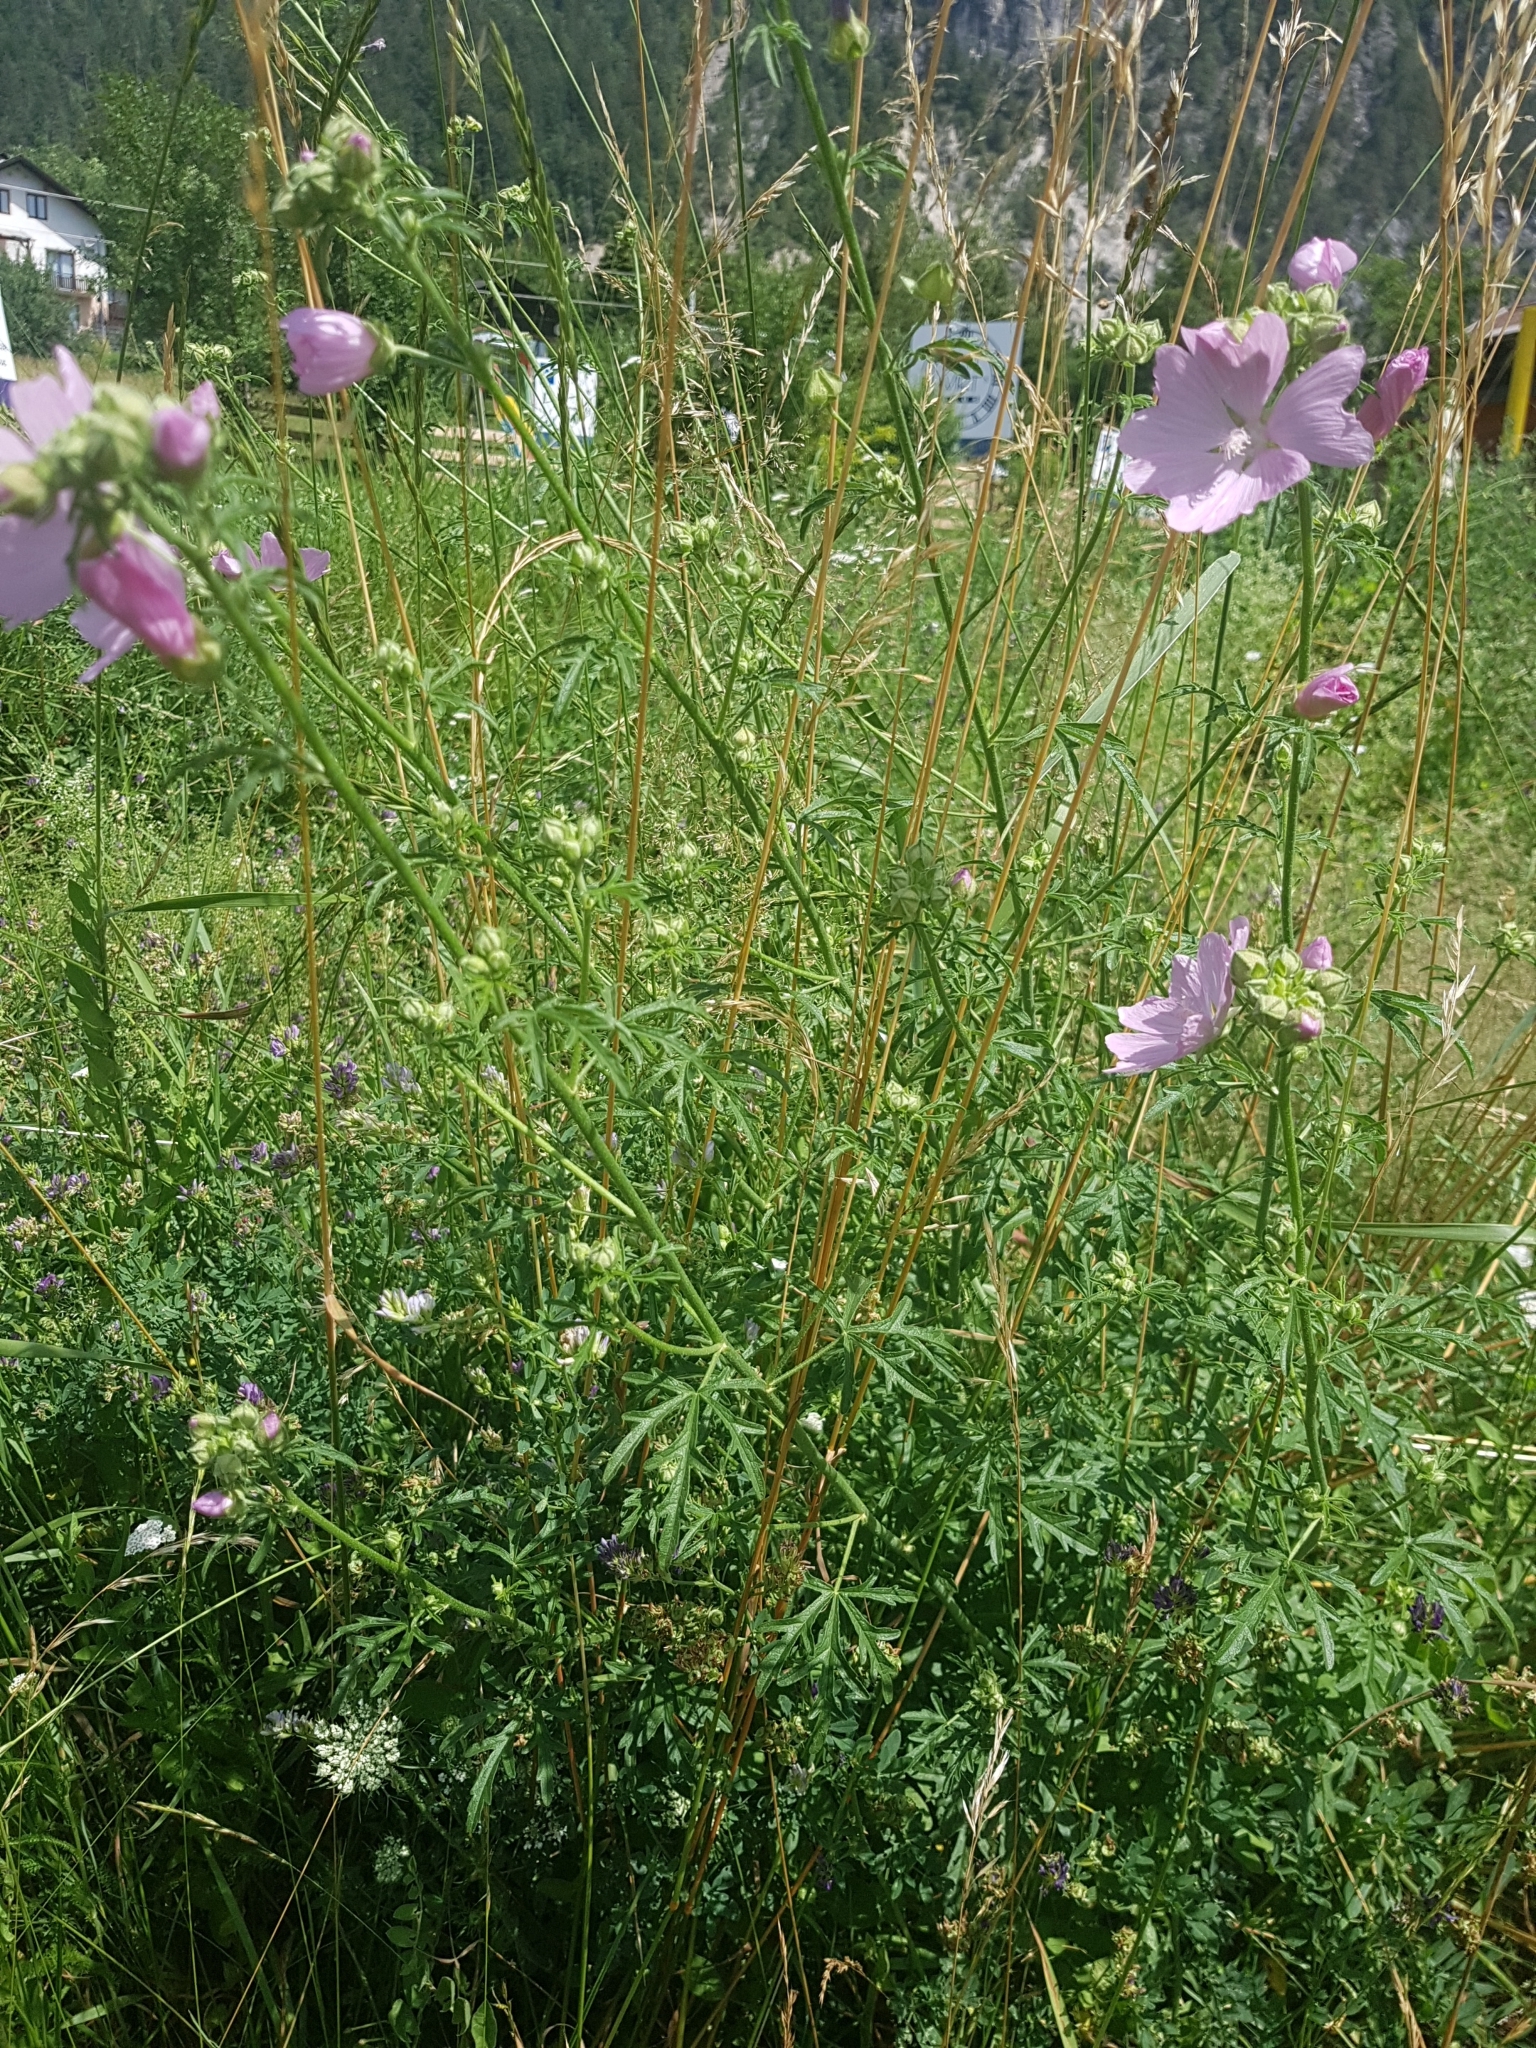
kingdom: Plantae
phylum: Tracheophyta
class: Magnoliopsida
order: Malvales
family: Malvaceae
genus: Malva
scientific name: Malva alcea
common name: Greater musk-mallow
